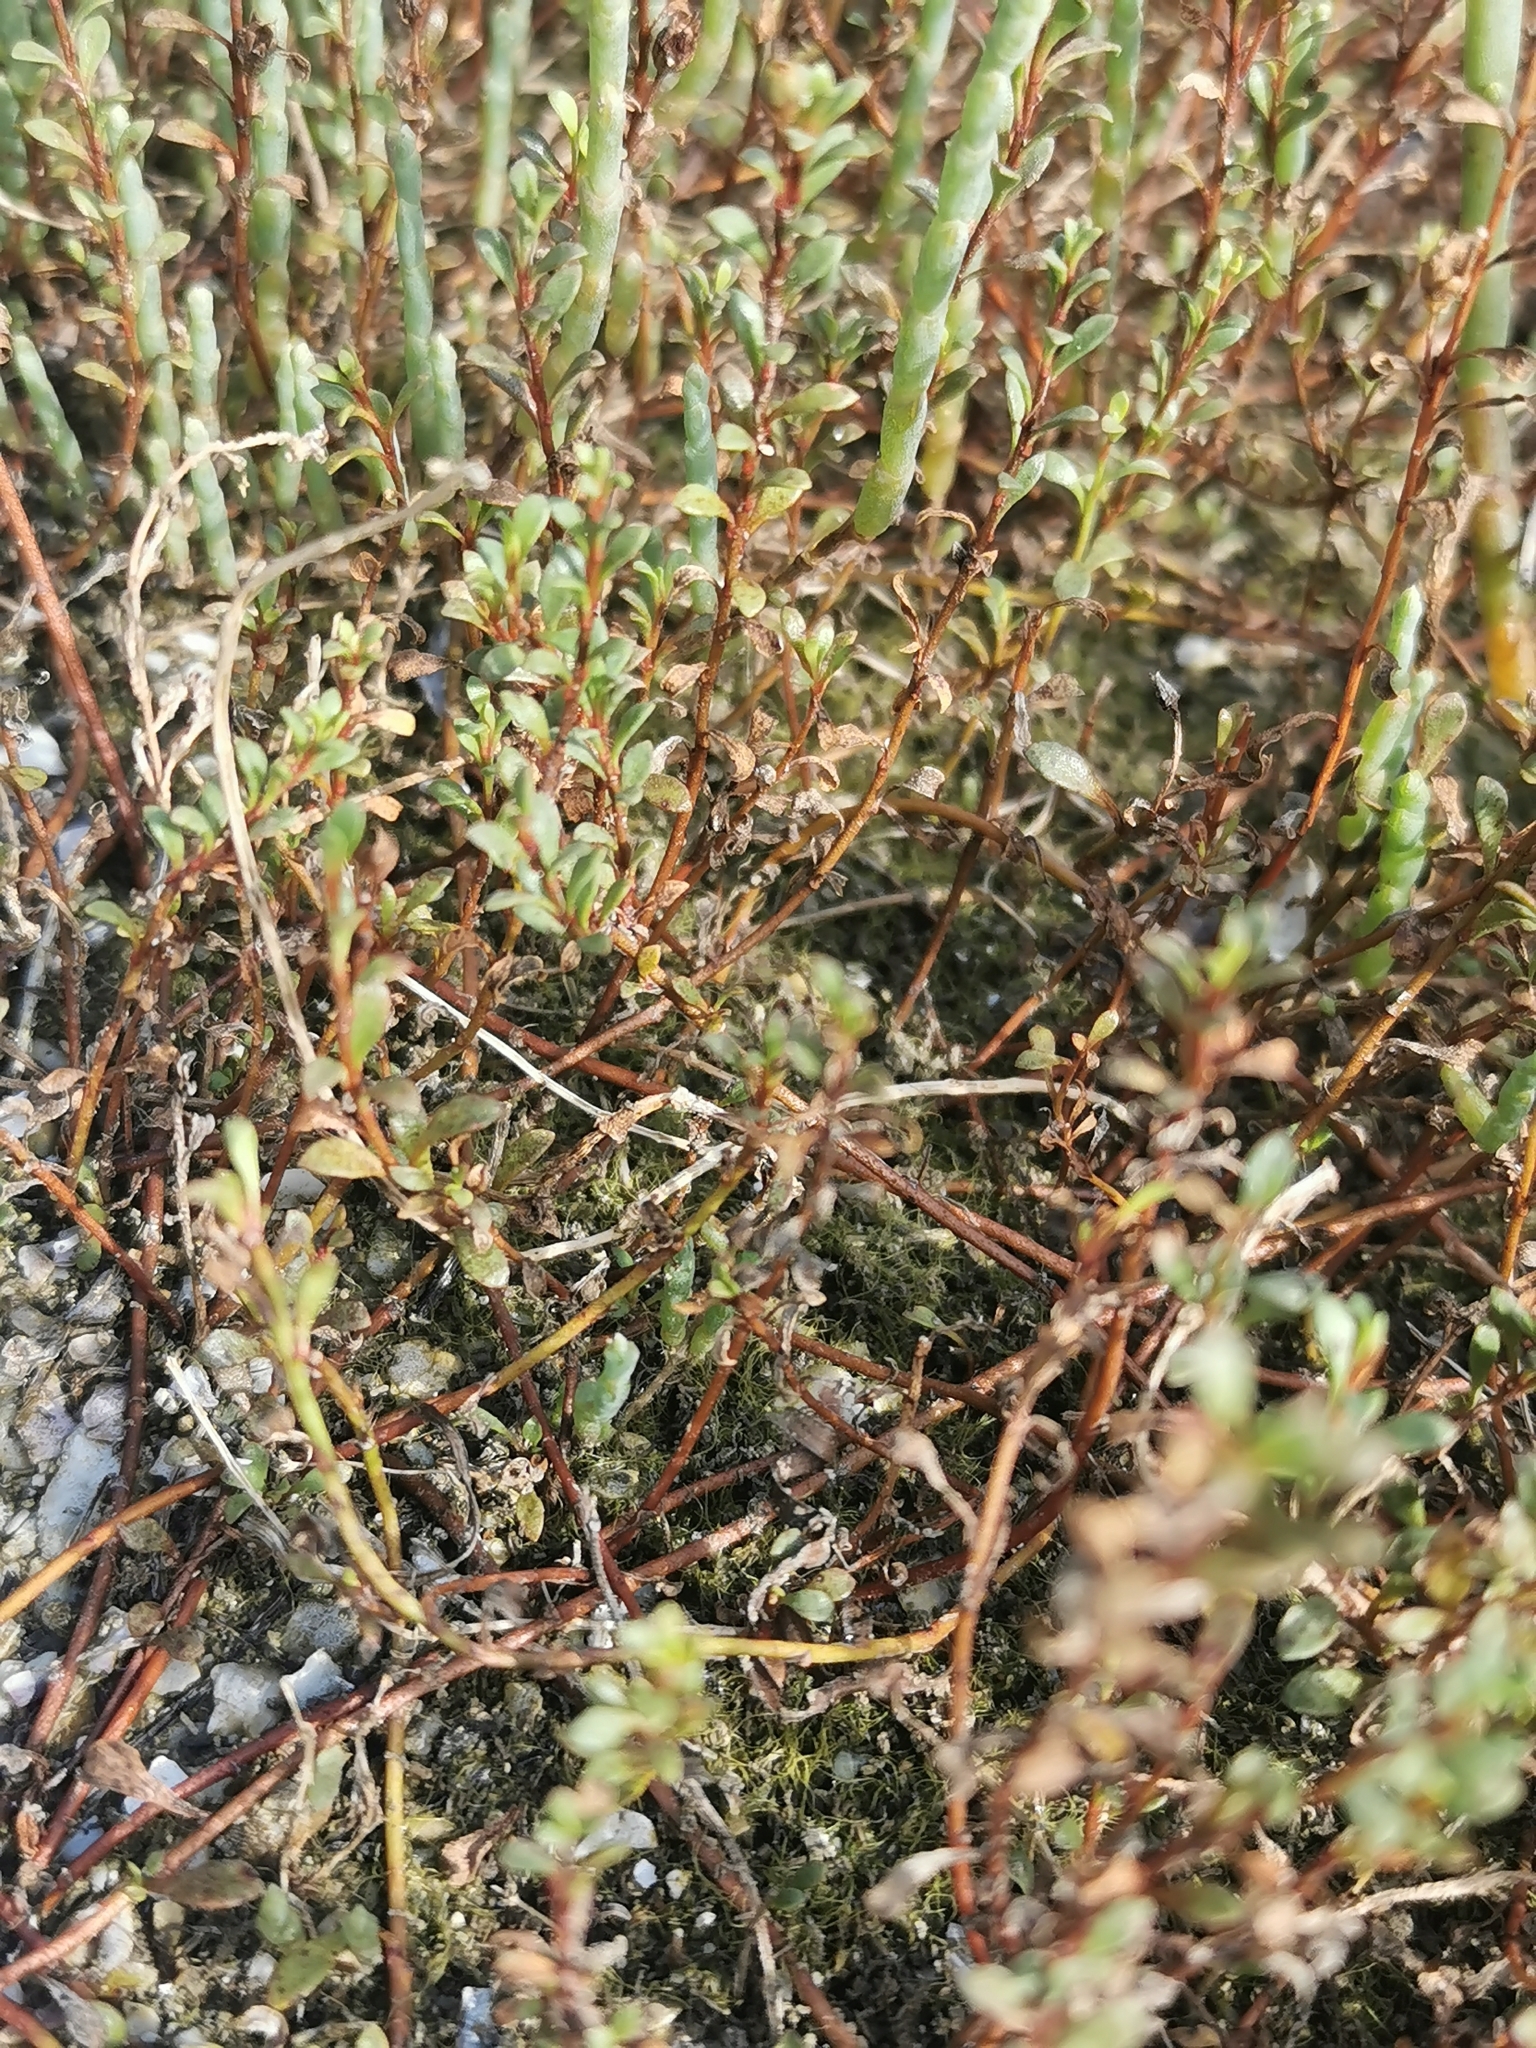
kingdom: Plantae
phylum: Tracheophyta
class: Magnoliopsida
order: Ericales
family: Primulaceae
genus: Samolus
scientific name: Samolus repens
